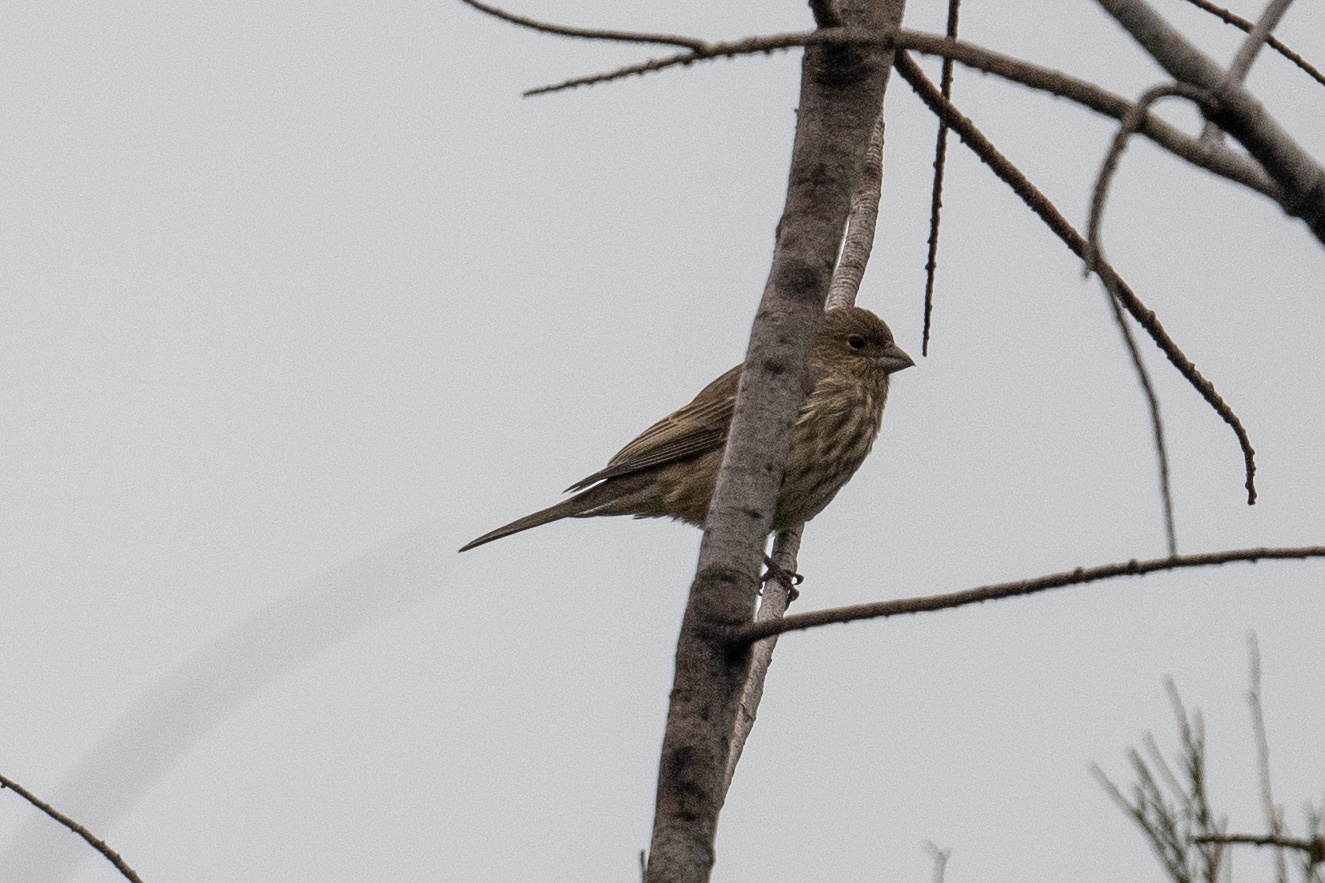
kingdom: Animalia
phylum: Chordata
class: Aves
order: Passeriformes
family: Fringillidae
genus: Haemorhous
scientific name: Haemorhous mexicanus
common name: House finch
